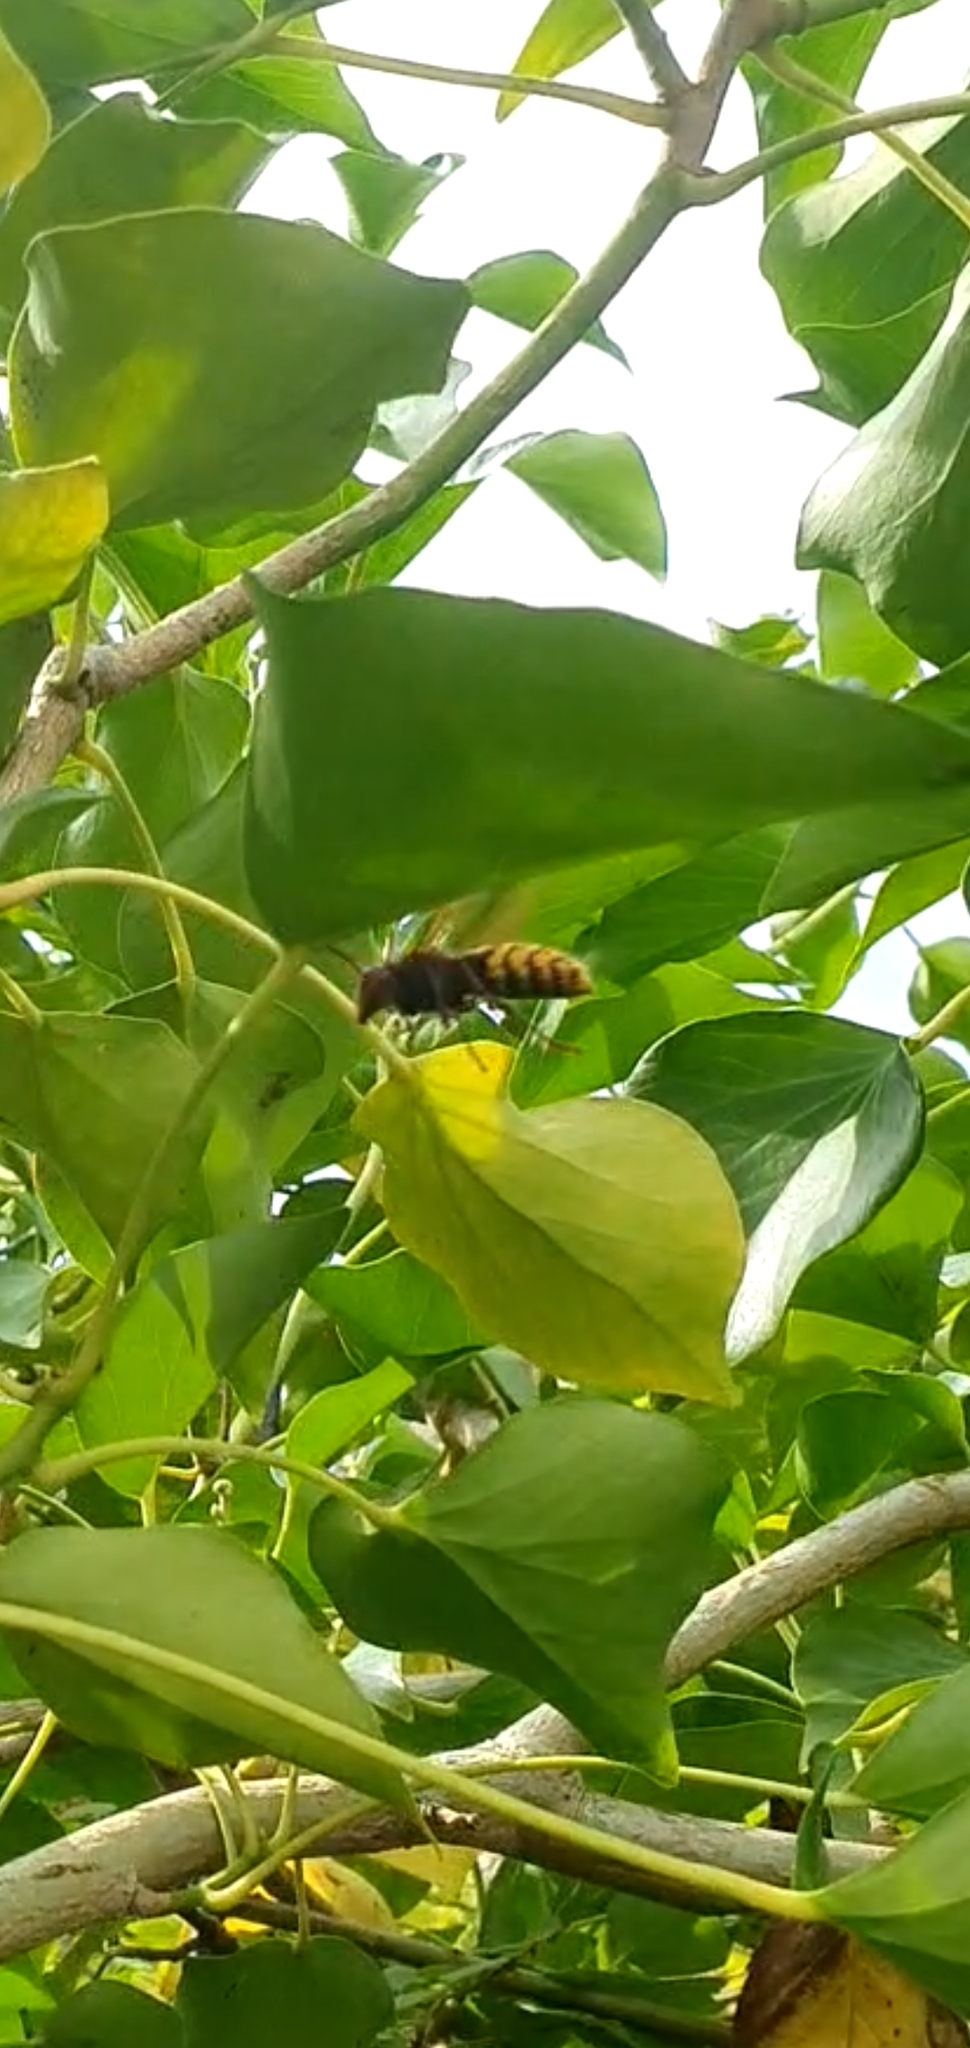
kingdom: Animalia
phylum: Arthropoda
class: Insecta
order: Hymenoptera
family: Vespidae
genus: Vespa
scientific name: Vespa crabro
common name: Hornet
